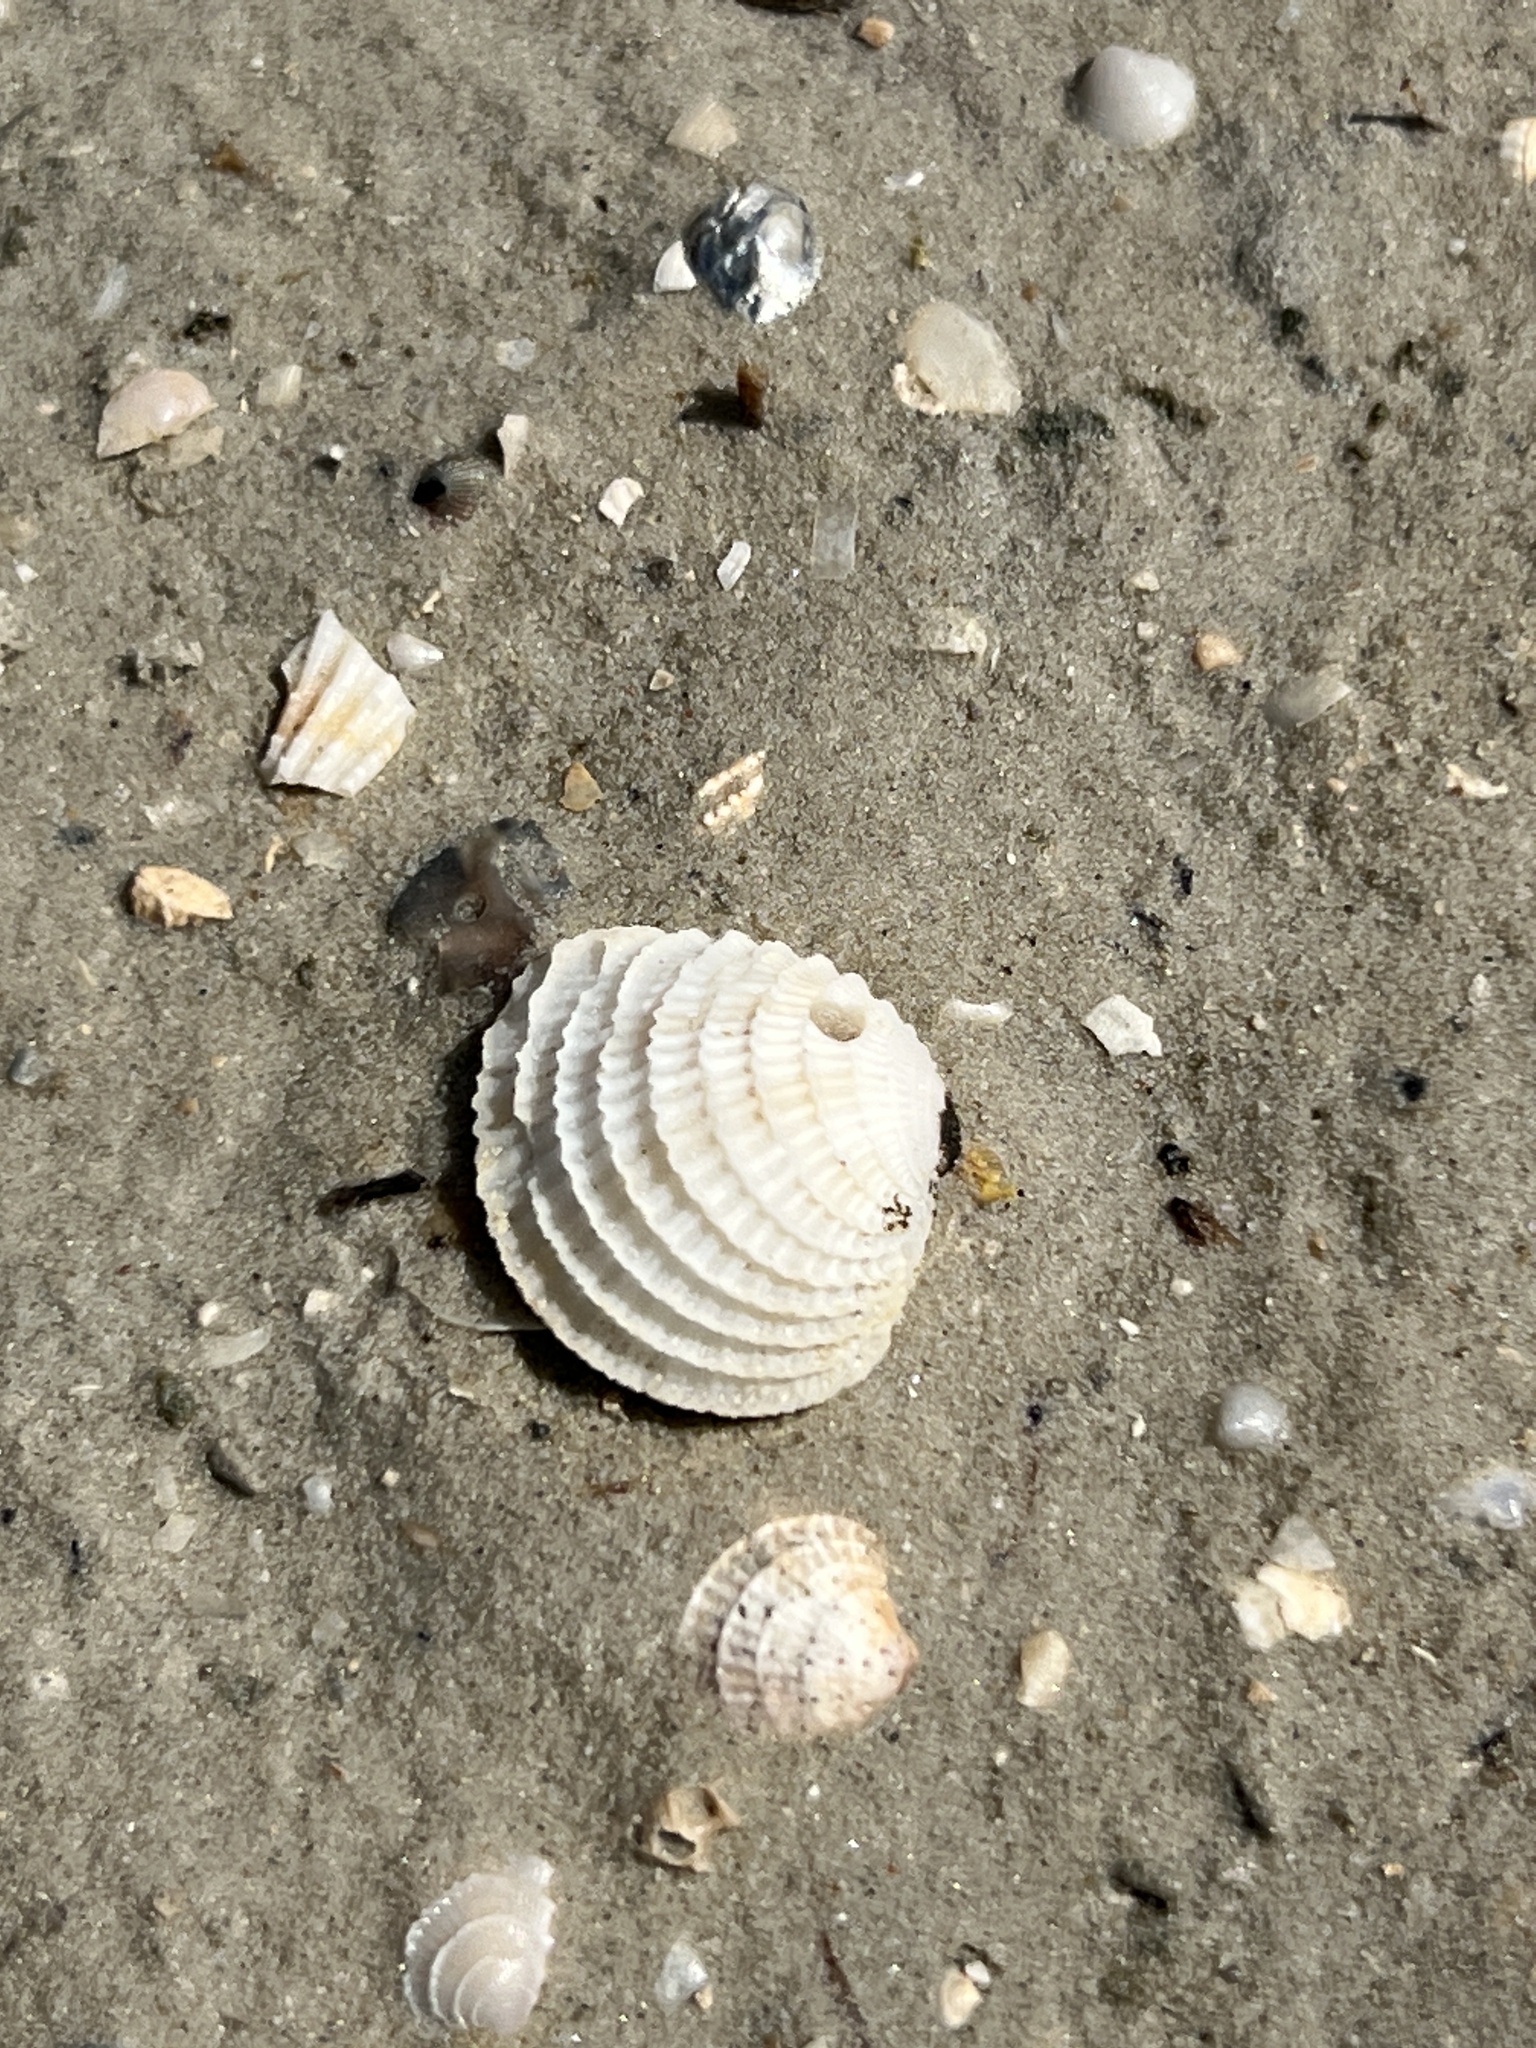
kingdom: Animalia
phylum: Mollusca
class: Bivalvia
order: Venerida
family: Veneridae
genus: Chione
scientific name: Chione elevata
